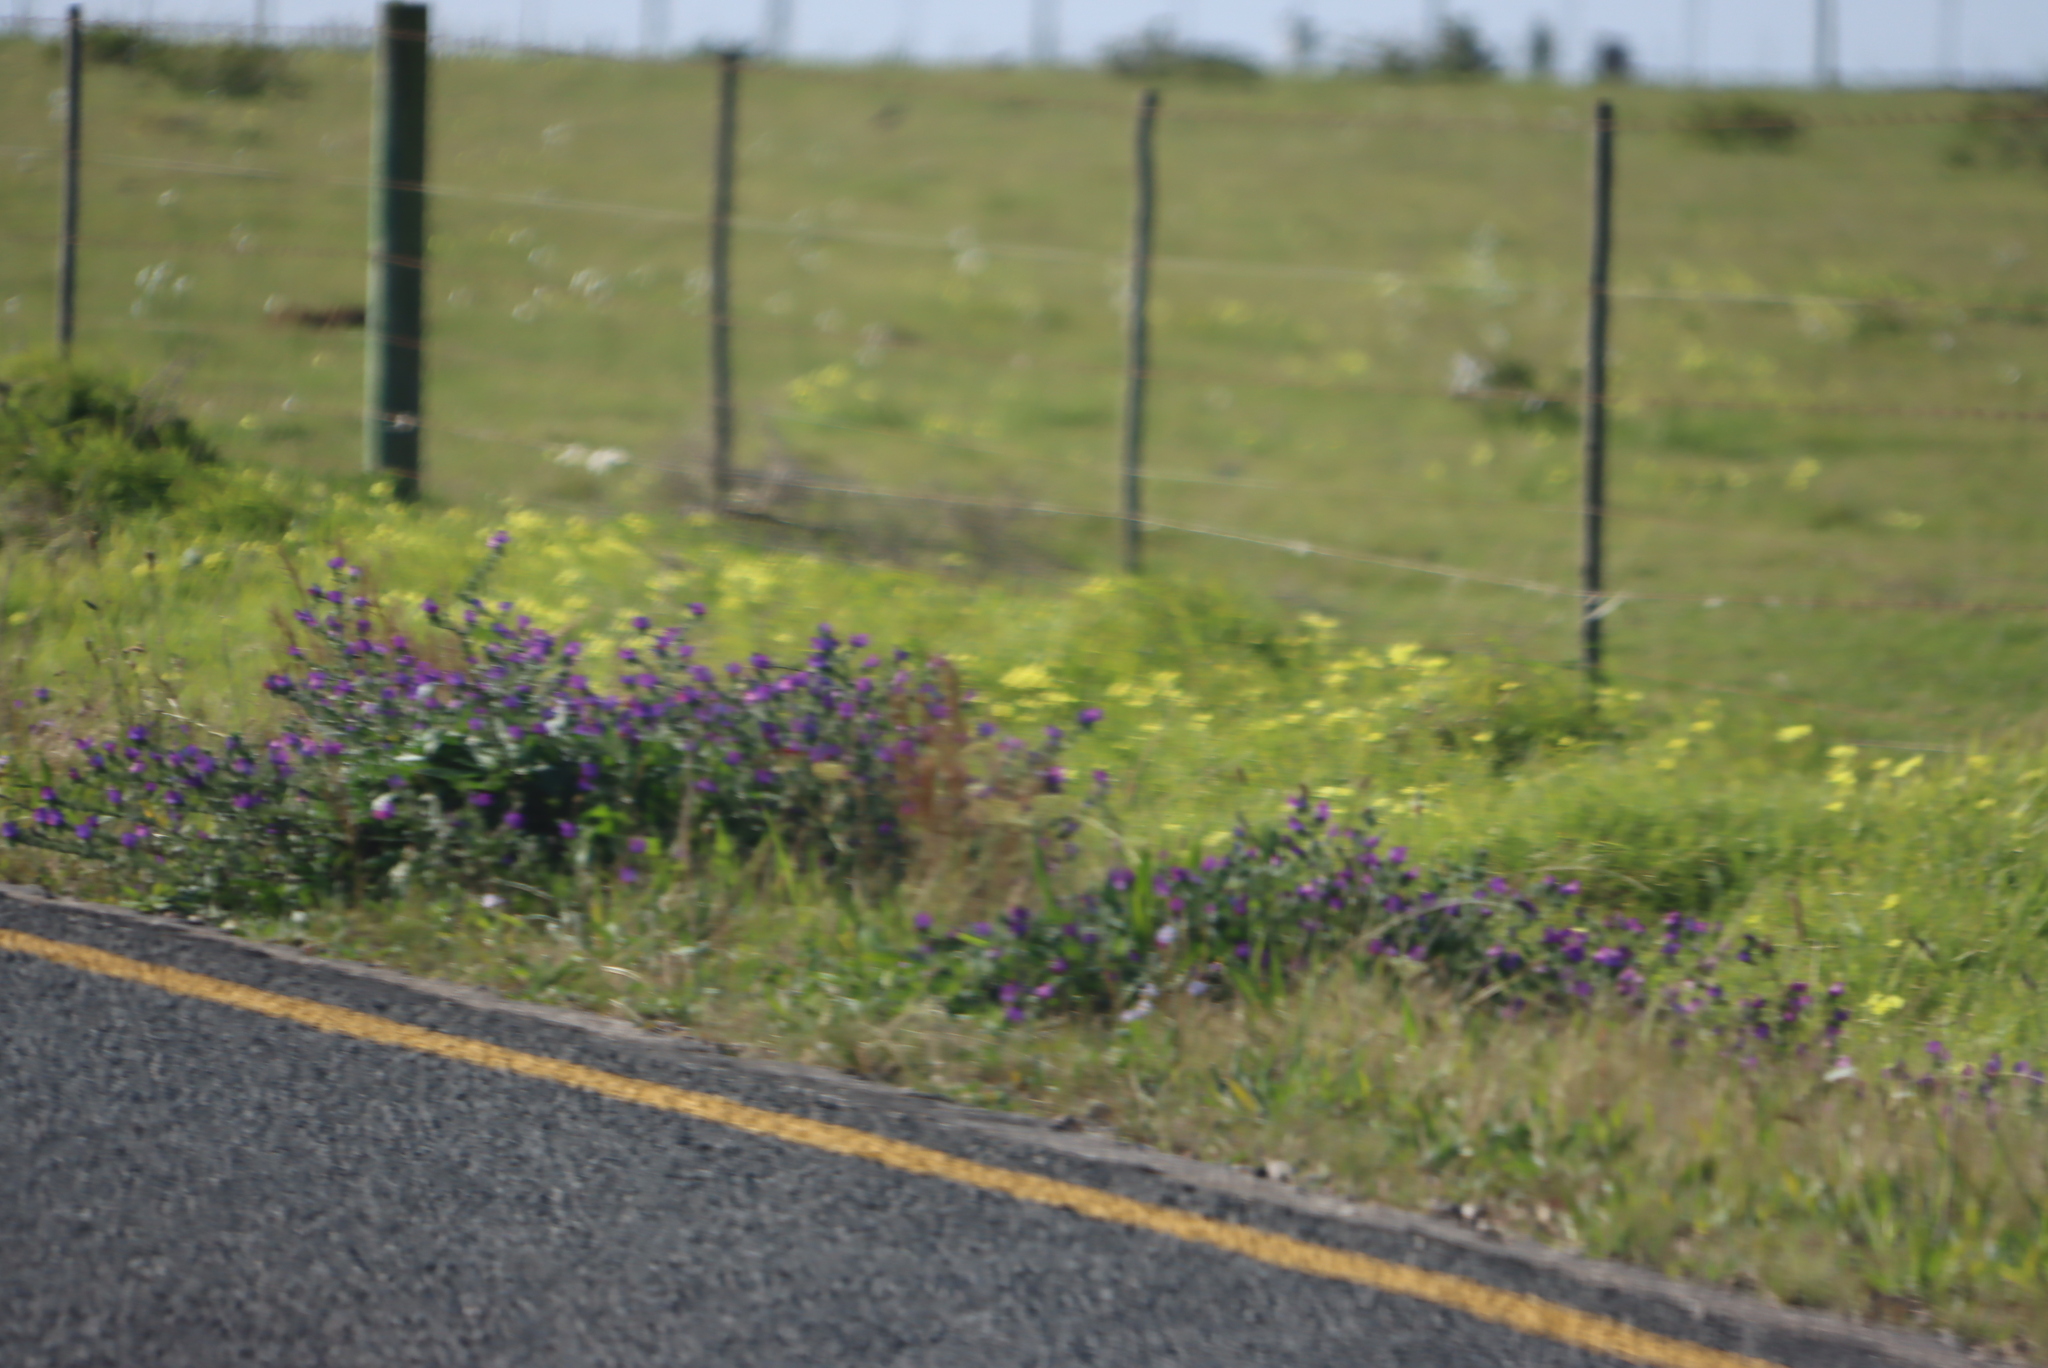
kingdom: Plantae
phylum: Tracheophyta
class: Magnoliopsida
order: Boraginales
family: Boraginaceae
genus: Echium
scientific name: Echium plantagineum
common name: Purple viper's-bugloss
